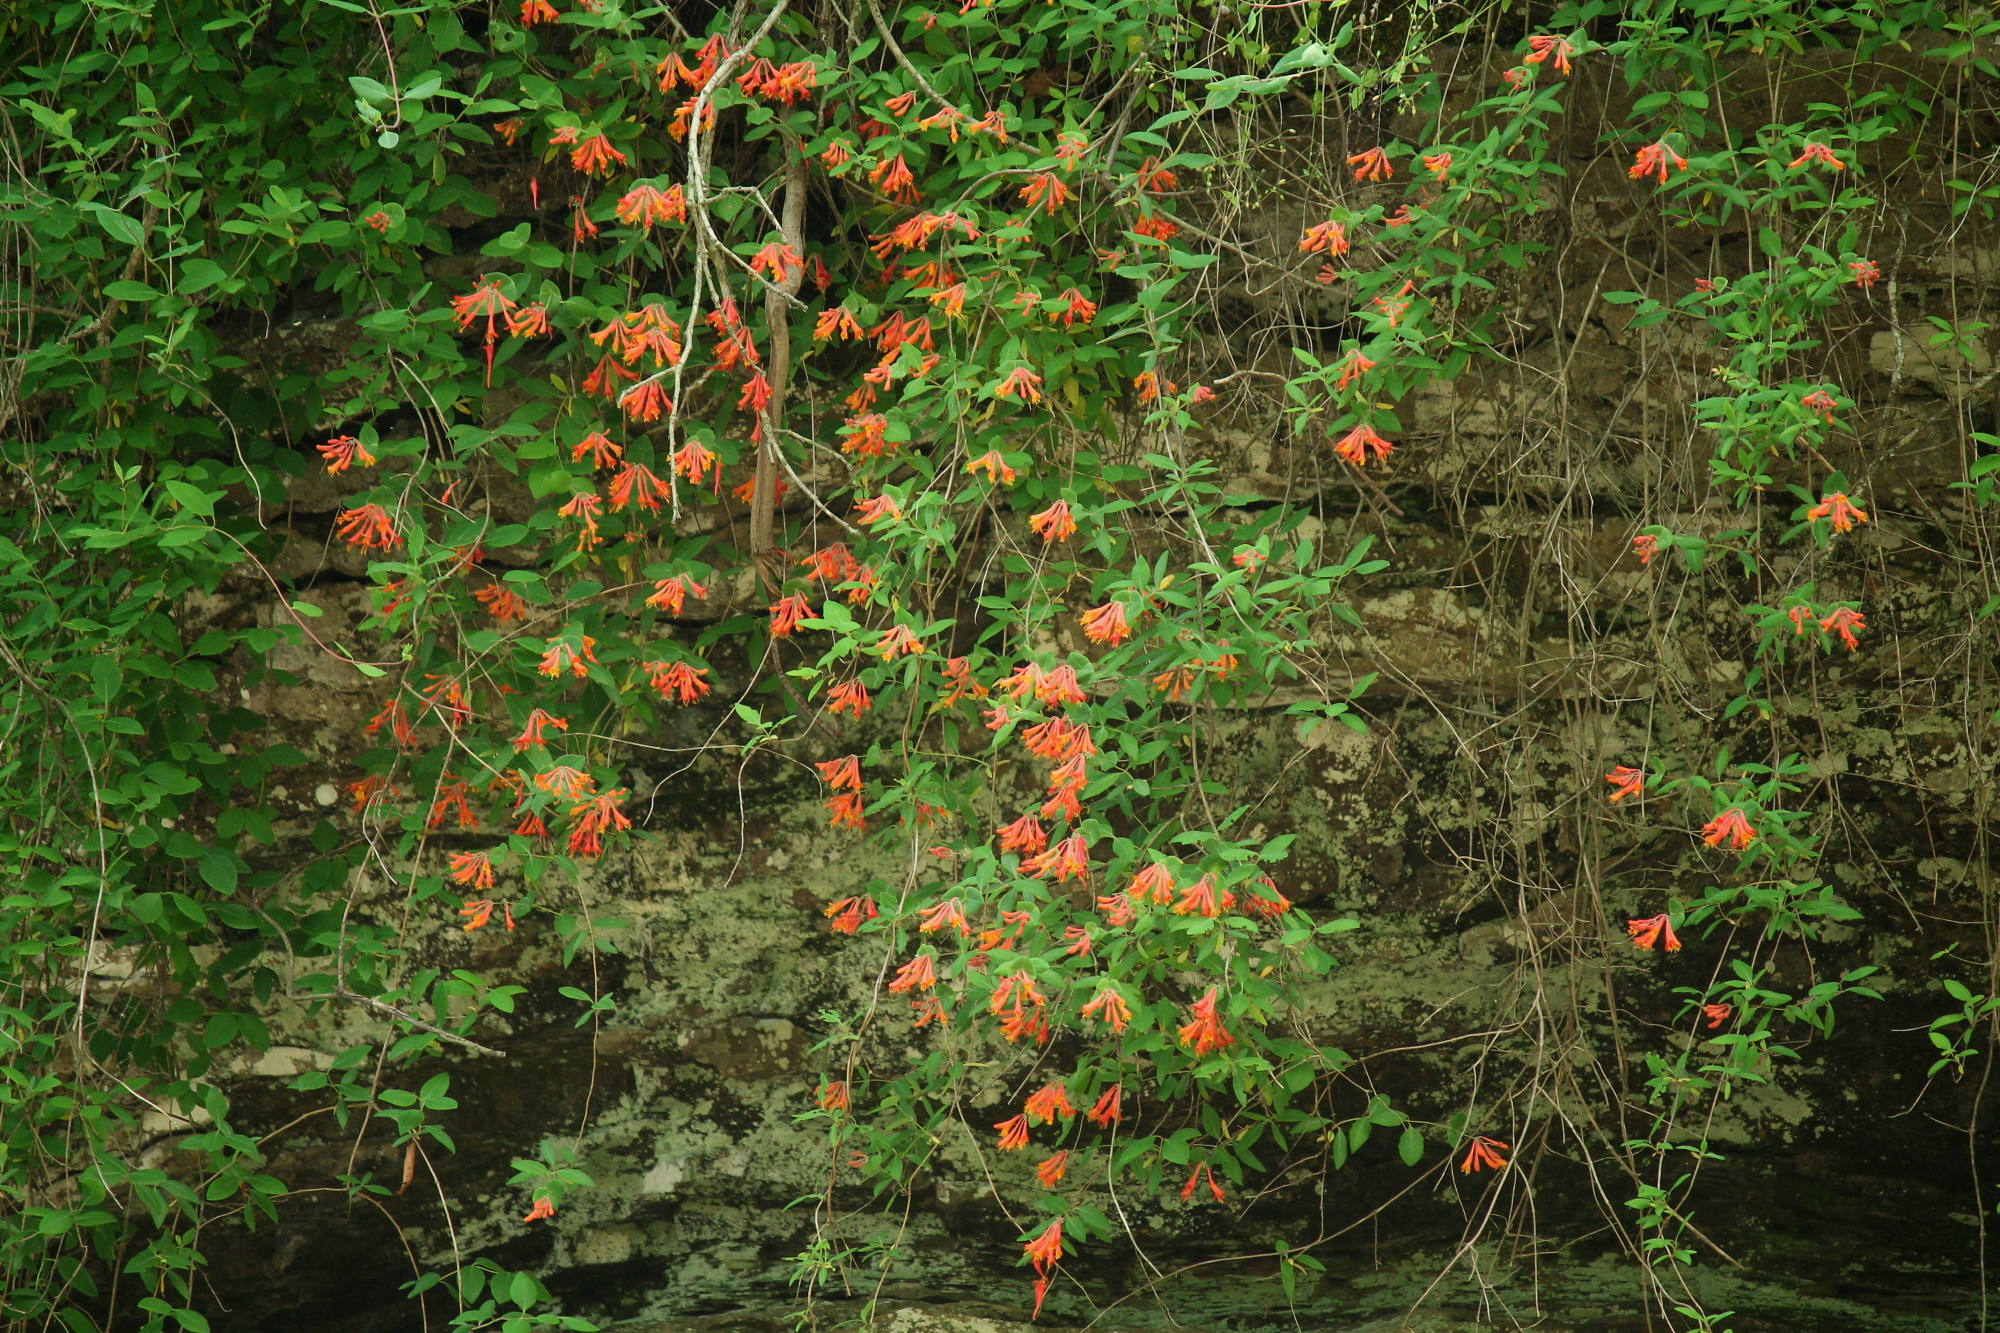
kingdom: Plantae
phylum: Tracheophyta
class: Magnoliopsida
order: Dipsacales
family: Caprifoliaceae
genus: Lonicera
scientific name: Lonicera sempervirens
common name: Coral honeysuckle
